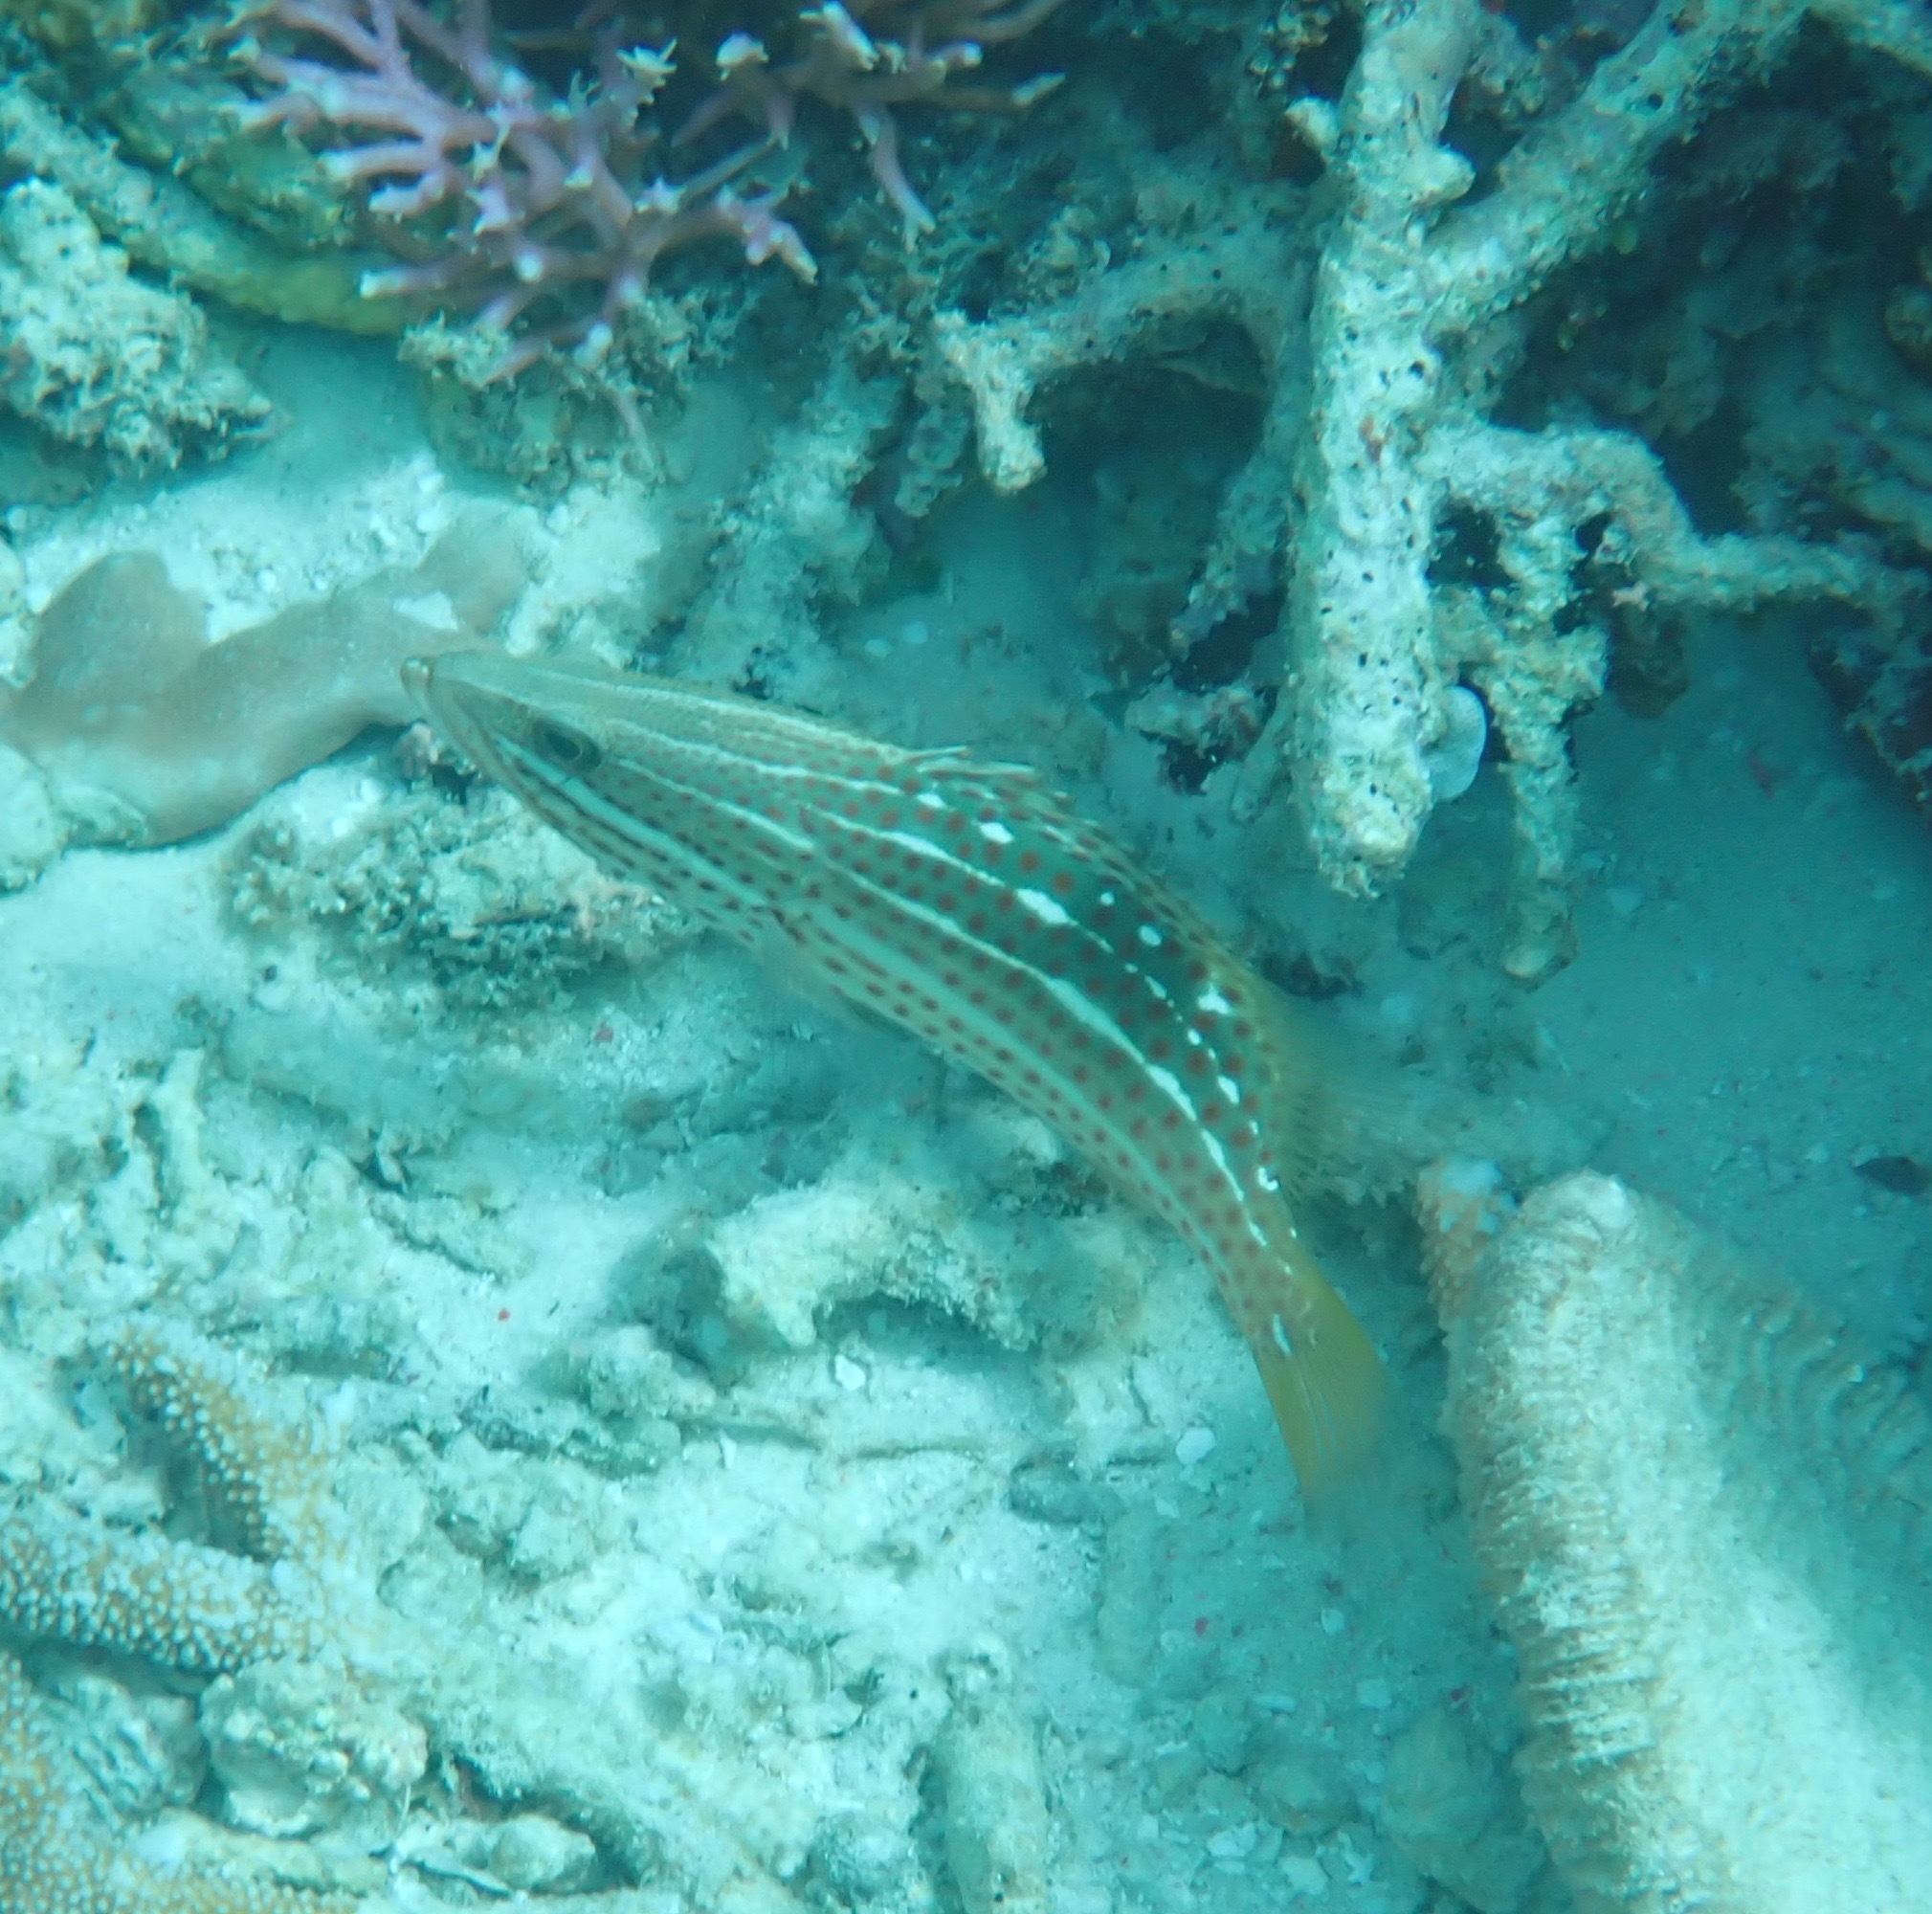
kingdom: Animalia
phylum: Chordata
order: Perciformes
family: Serranidae
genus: Anyperodon
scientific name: Anyperodon leucogrammicus
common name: Slender grouper
